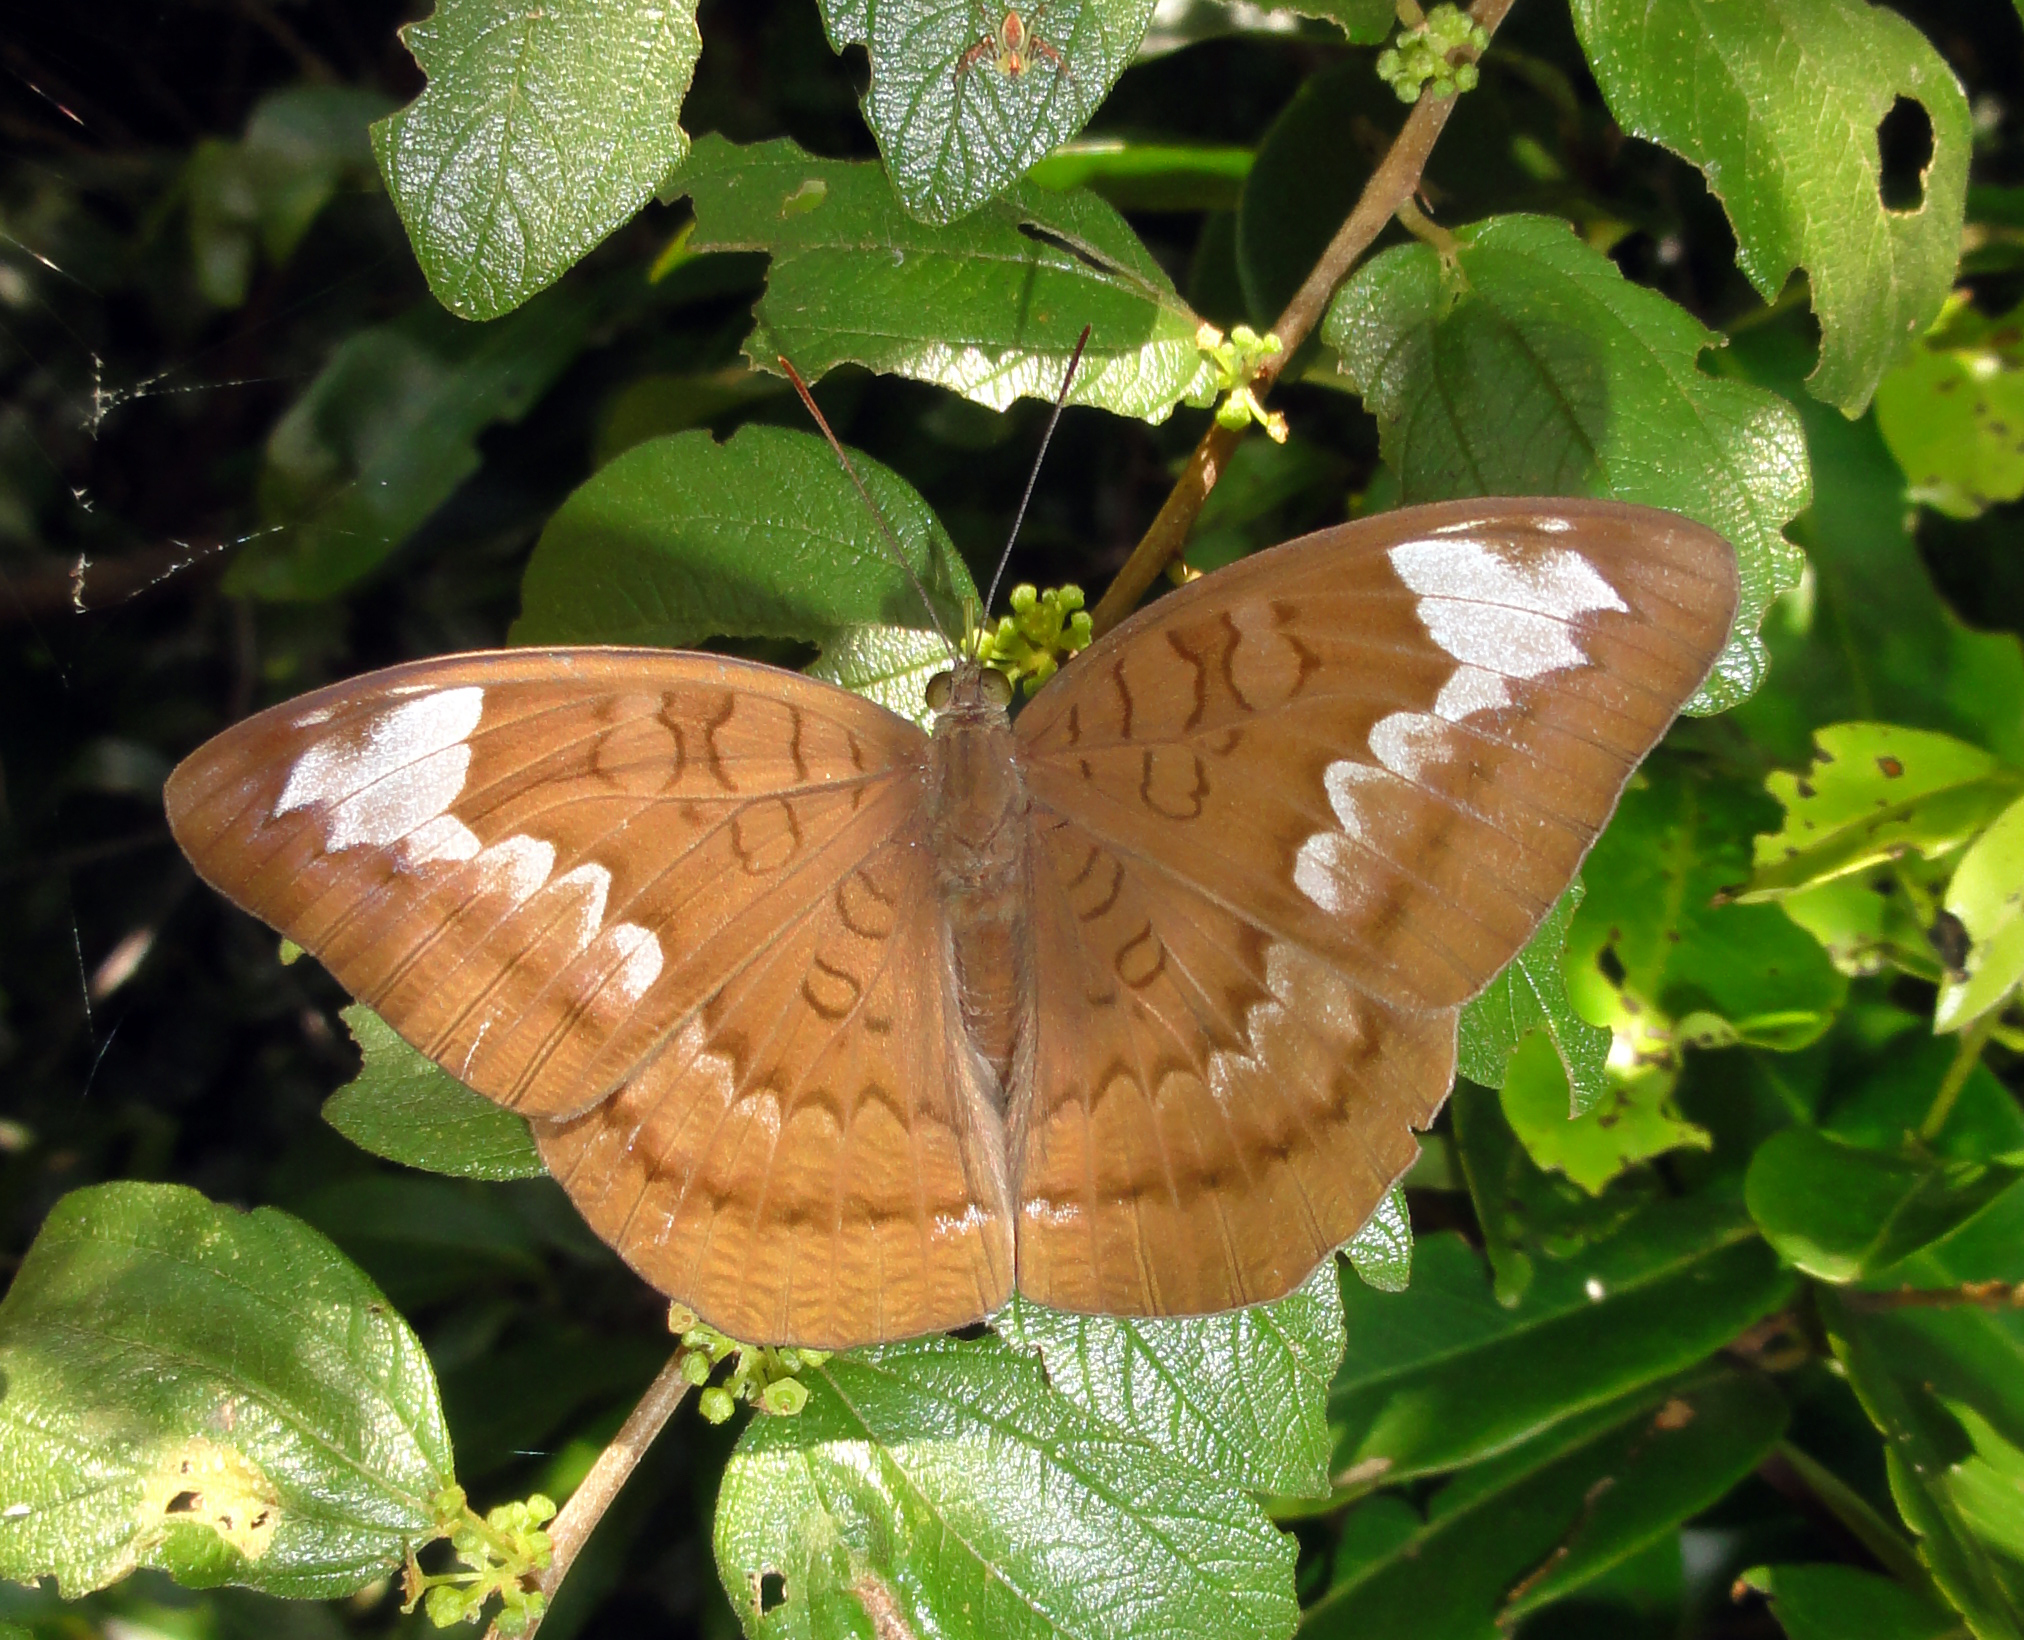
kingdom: Animalia
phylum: Arthropoda
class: Insecta
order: Lepidoptera
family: Nymphalidae
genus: Tanaecia
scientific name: Tanaecia julii
